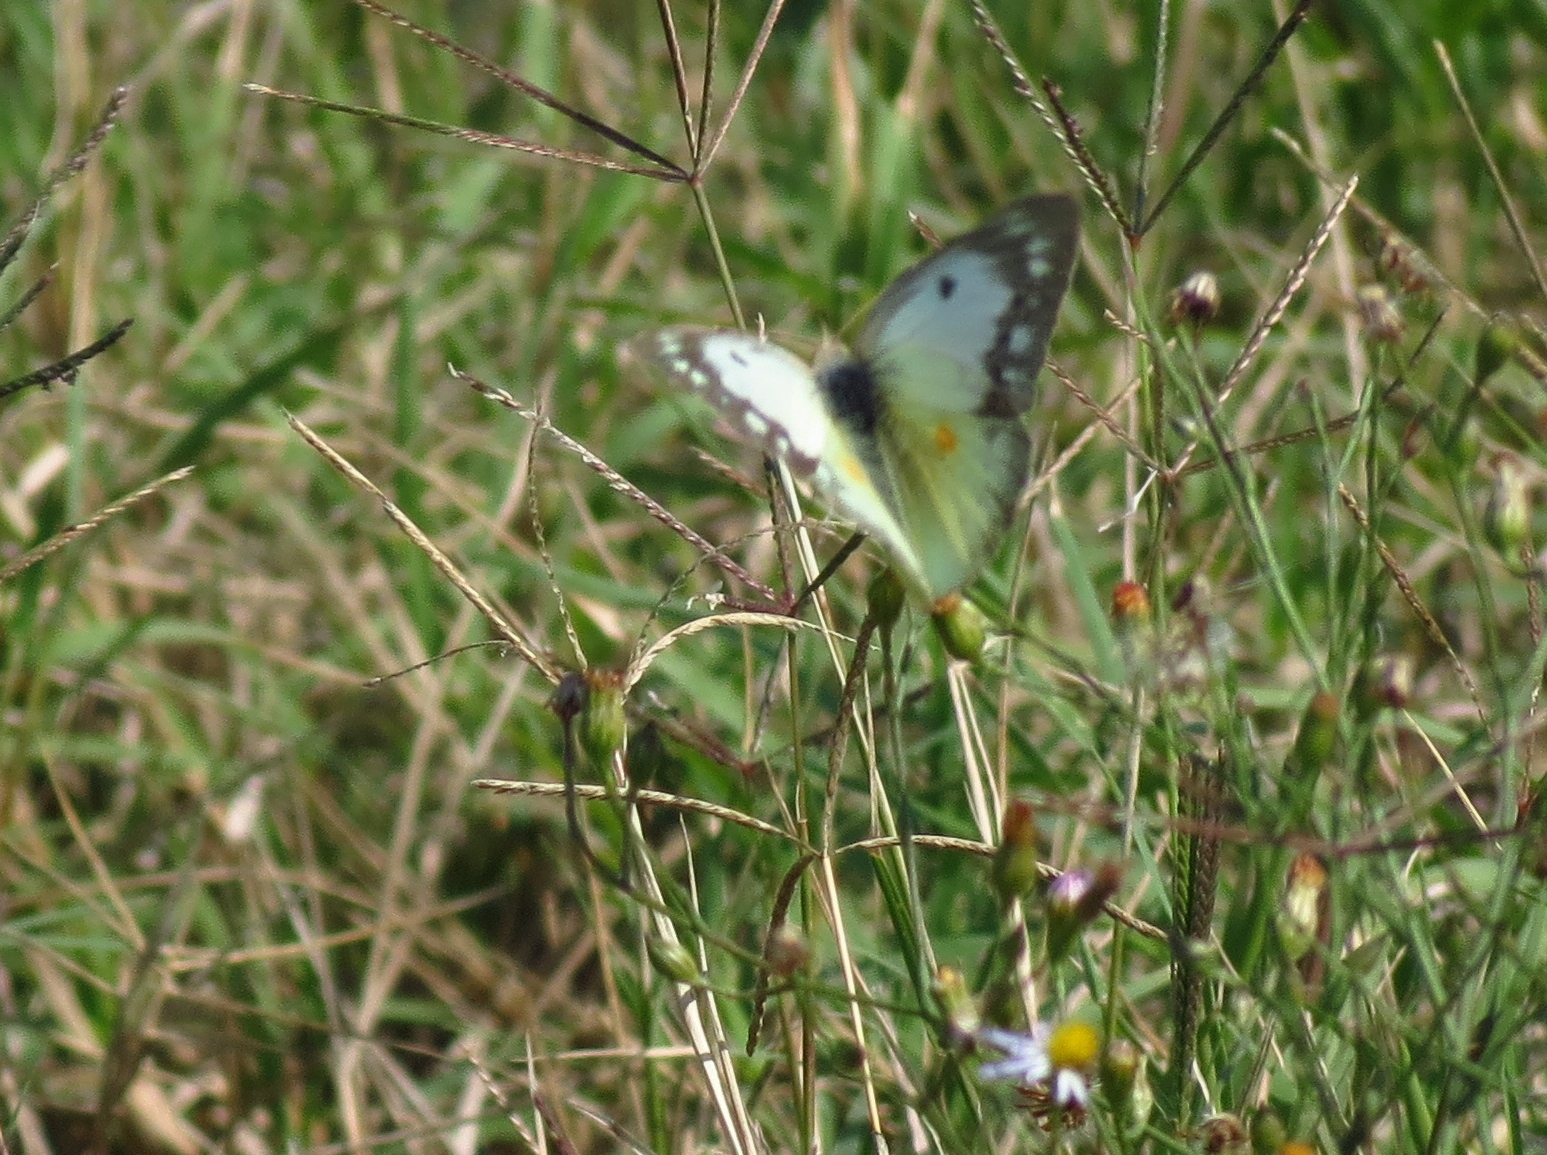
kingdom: Animalia
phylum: Arthropoda
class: Insecta
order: Lepidoptera
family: Pieridae
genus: Colias
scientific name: Colias eurytheme
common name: Alfalfa butterfly
